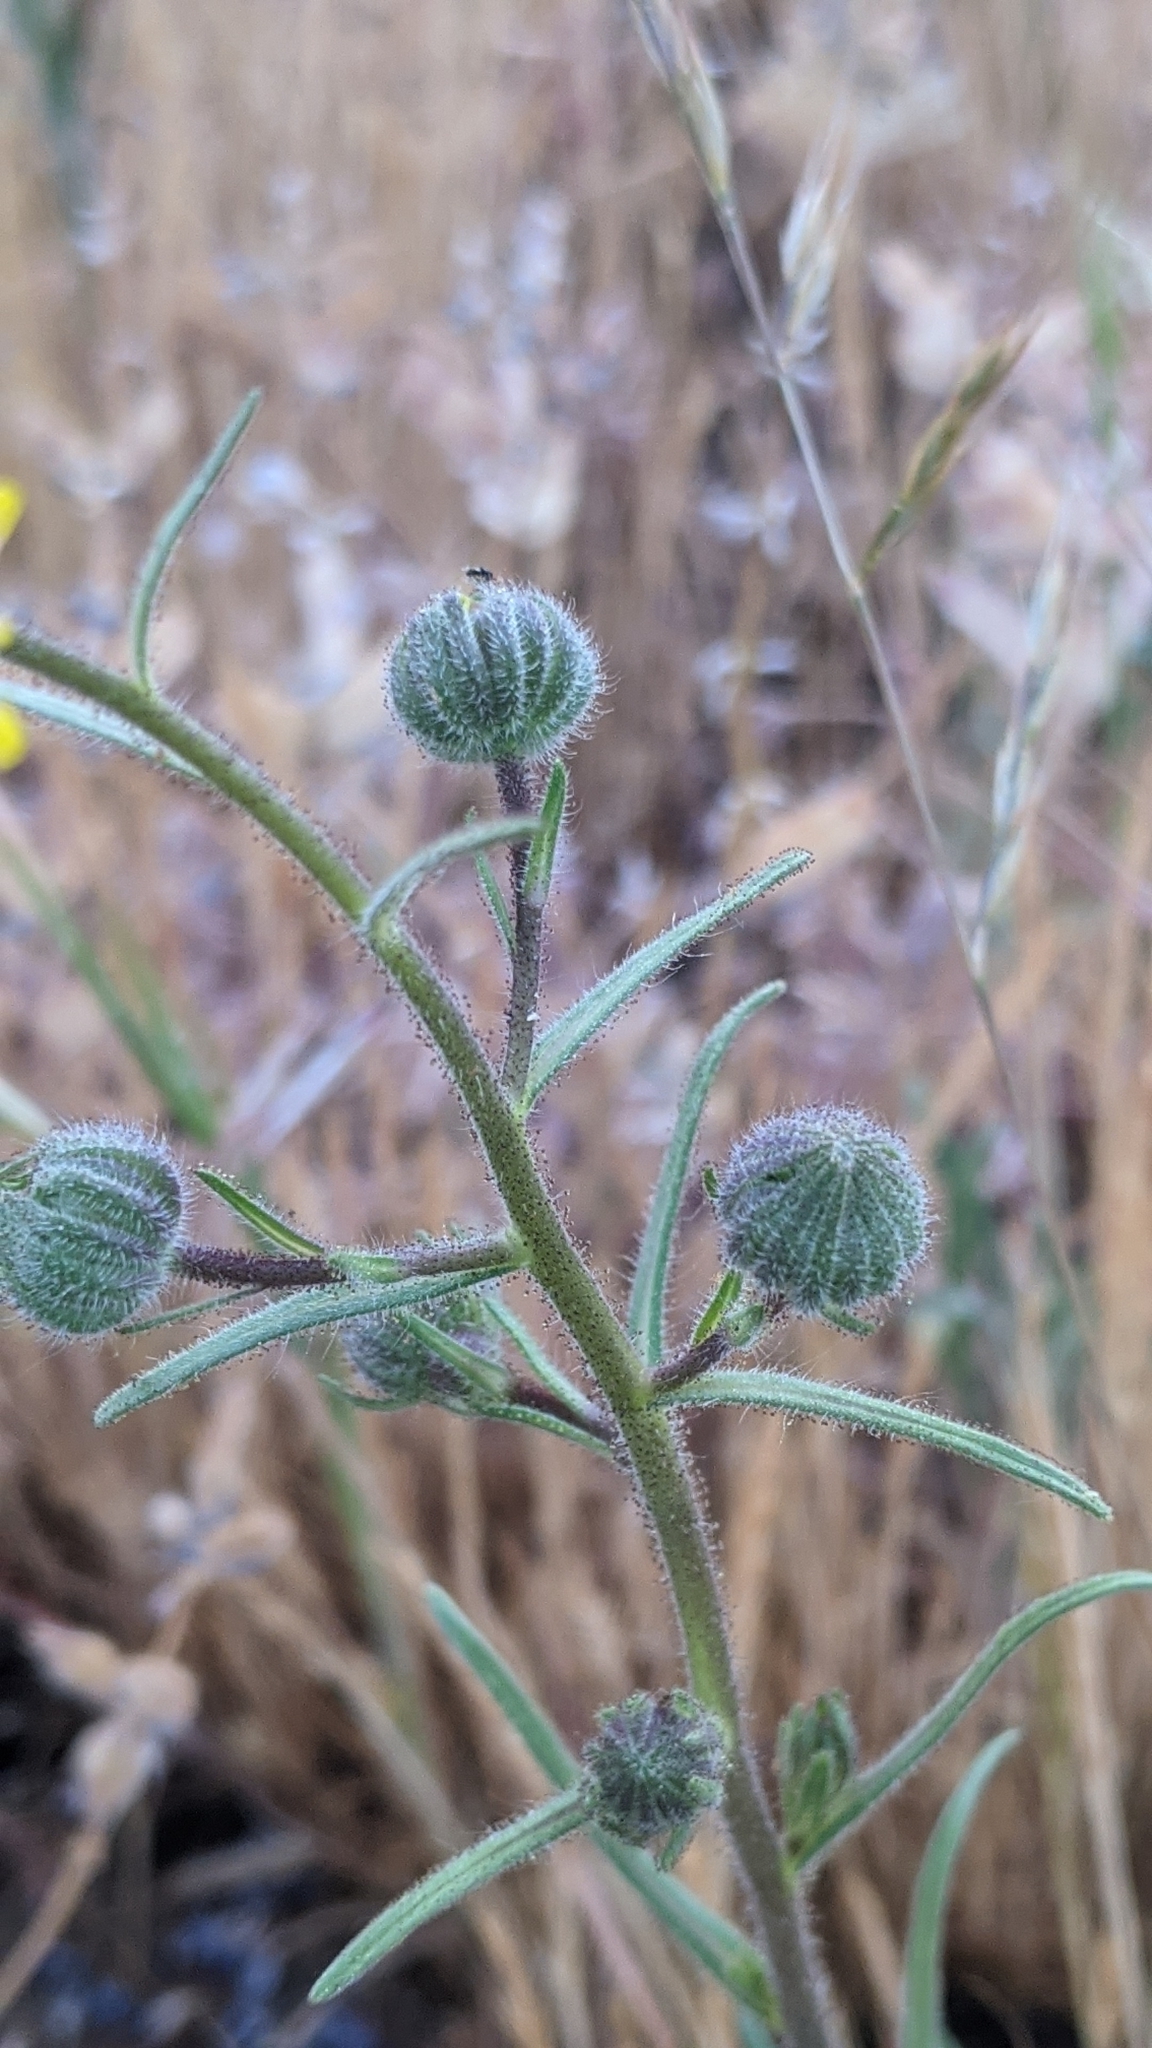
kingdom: Plantae
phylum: Tracheophyta
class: Magnoliopsida
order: Asterales
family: Asteraceae
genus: Madia
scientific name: Madia elegans
